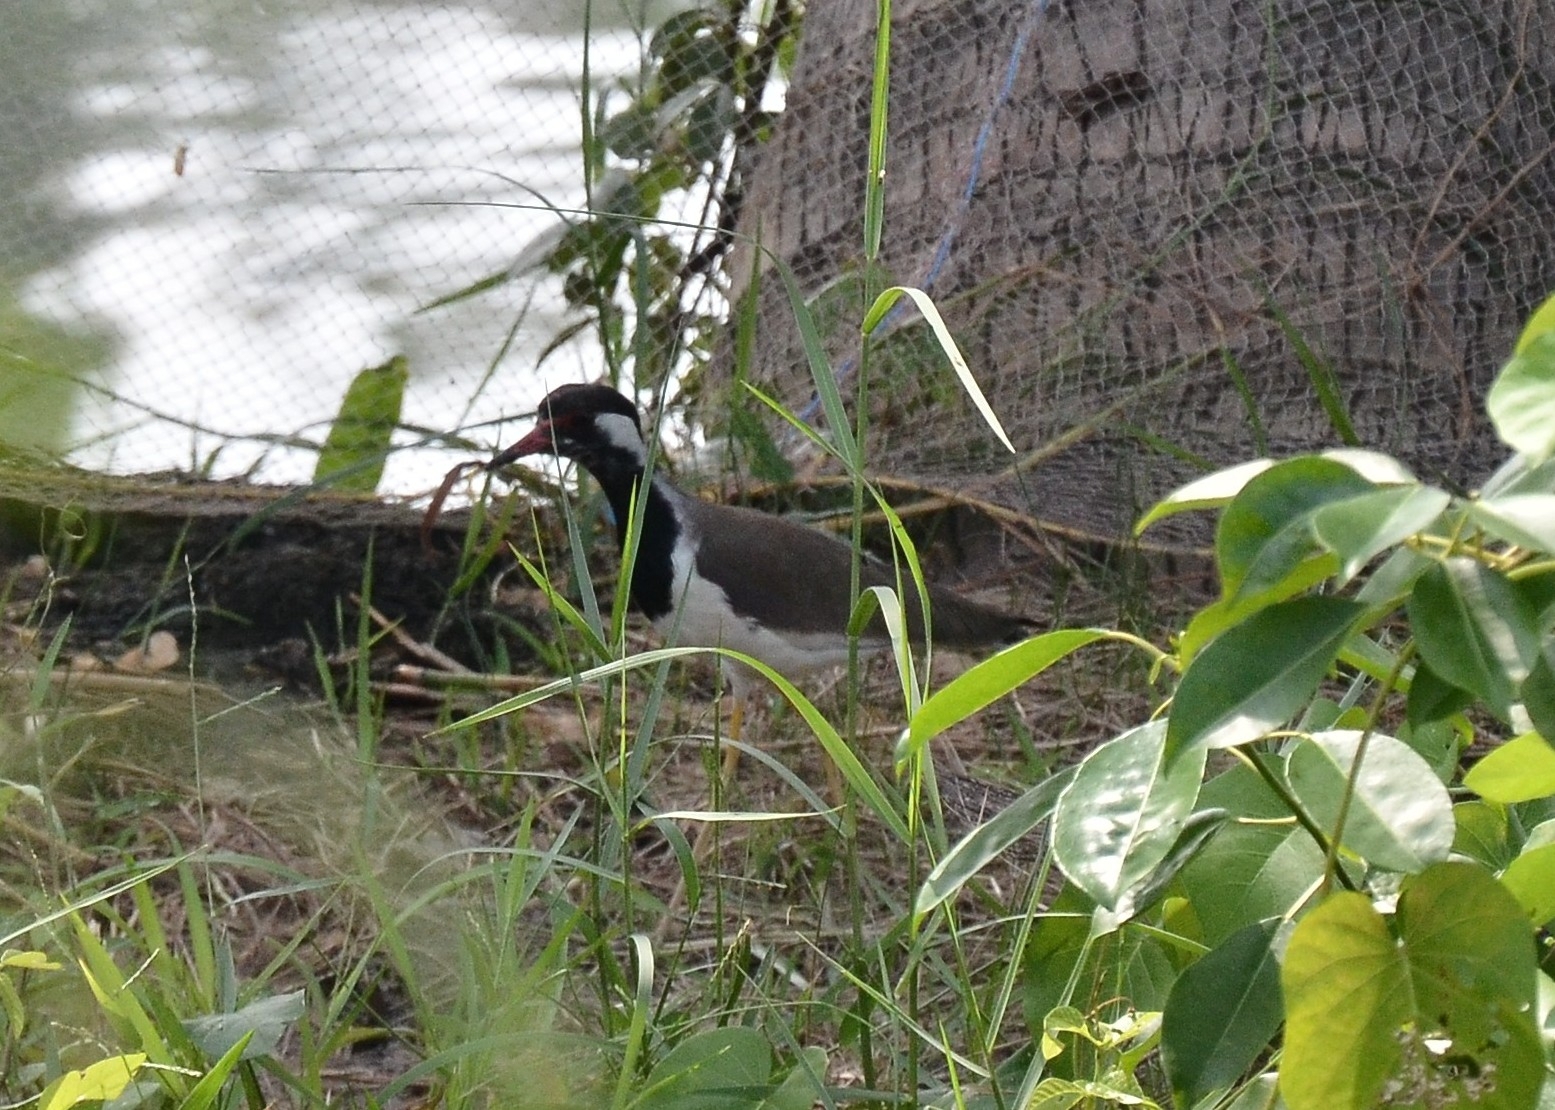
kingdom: Animalia
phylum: Chordata
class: Aves
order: Charadriiformes
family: Charadriidae
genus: Vanellus
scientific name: Vanellus indicus
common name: Red-wattled lapwing
